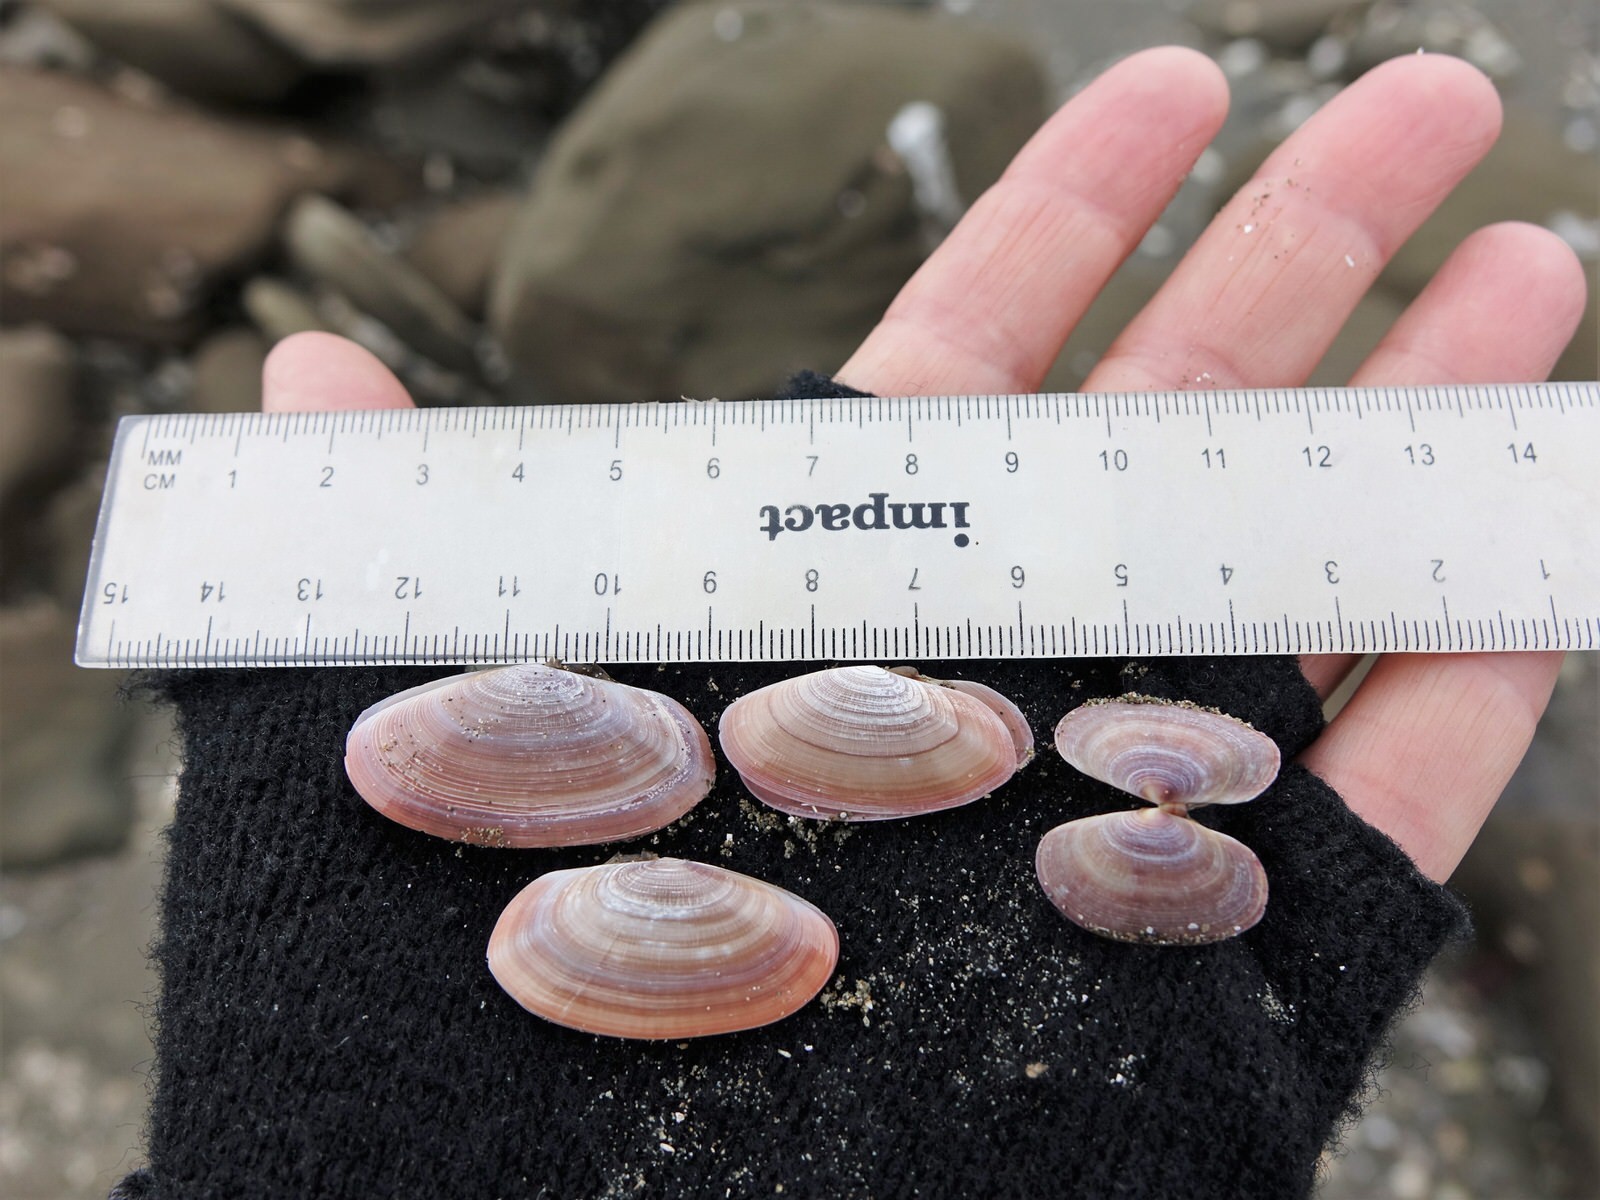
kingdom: Animalia
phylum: Mollusca
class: Bivalvia
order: Cardiida
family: Psammobiidae
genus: Gari
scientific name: Gari lineolata
